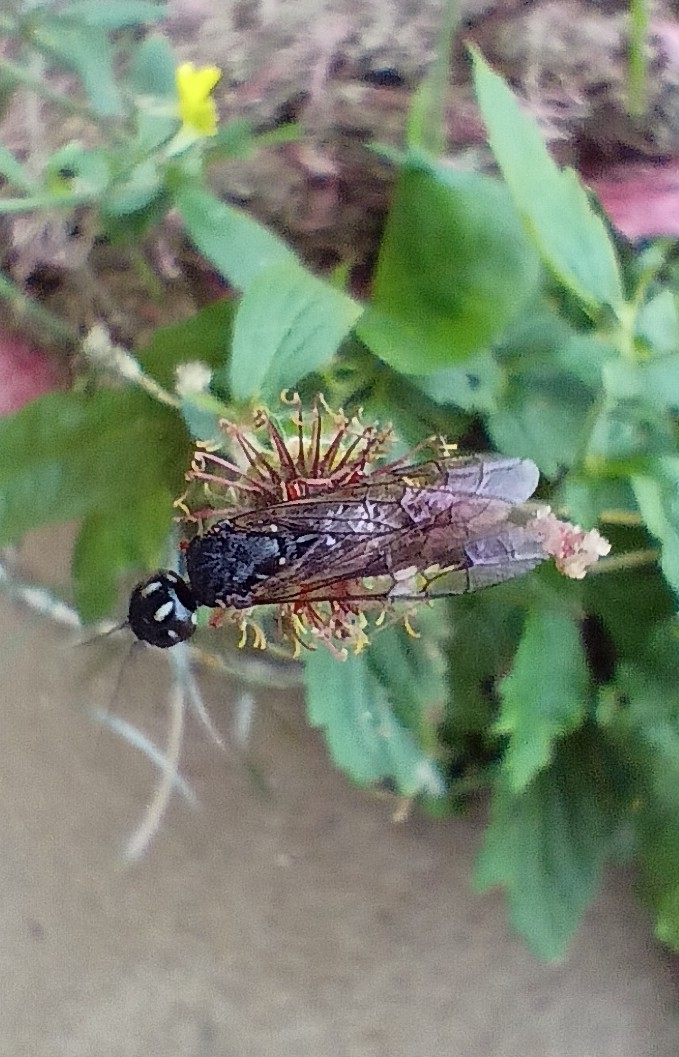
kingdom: Animalia
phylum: Arthropoda
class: Insecta
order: Hymenoptera
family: Xiphydriidae
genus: Xiphydria
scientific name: Xiphydria camelus
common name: Alder wood-wasp
